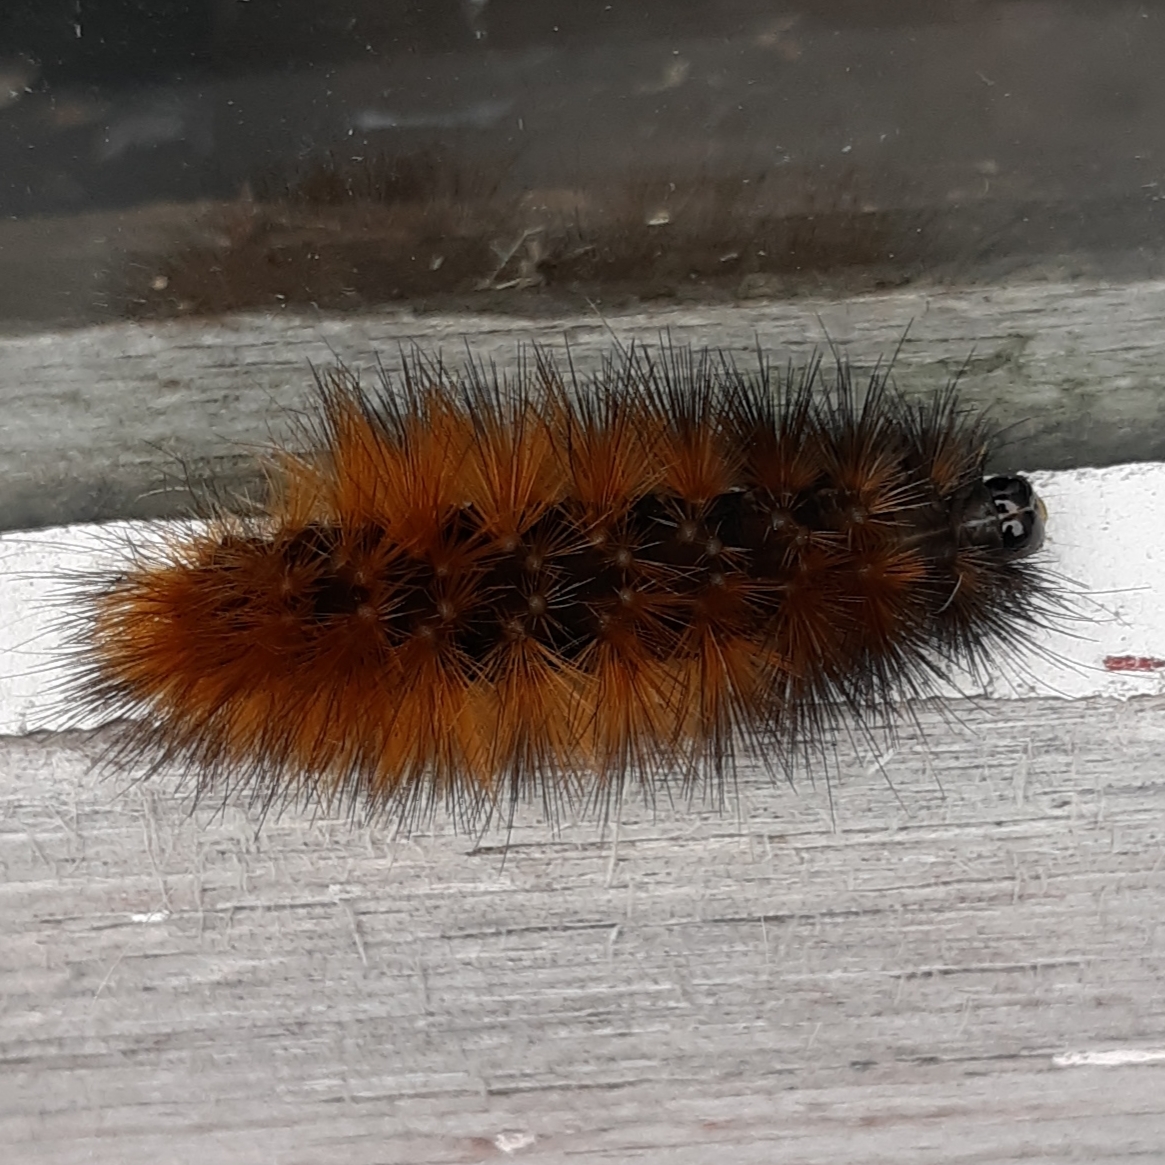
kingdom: Animalia
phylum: Arthropoda
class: Insecta
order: Lepidoptera
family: Erebidae
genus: Spilosoma
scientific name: Spilosoma virginica
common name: Virginia tiger moth
